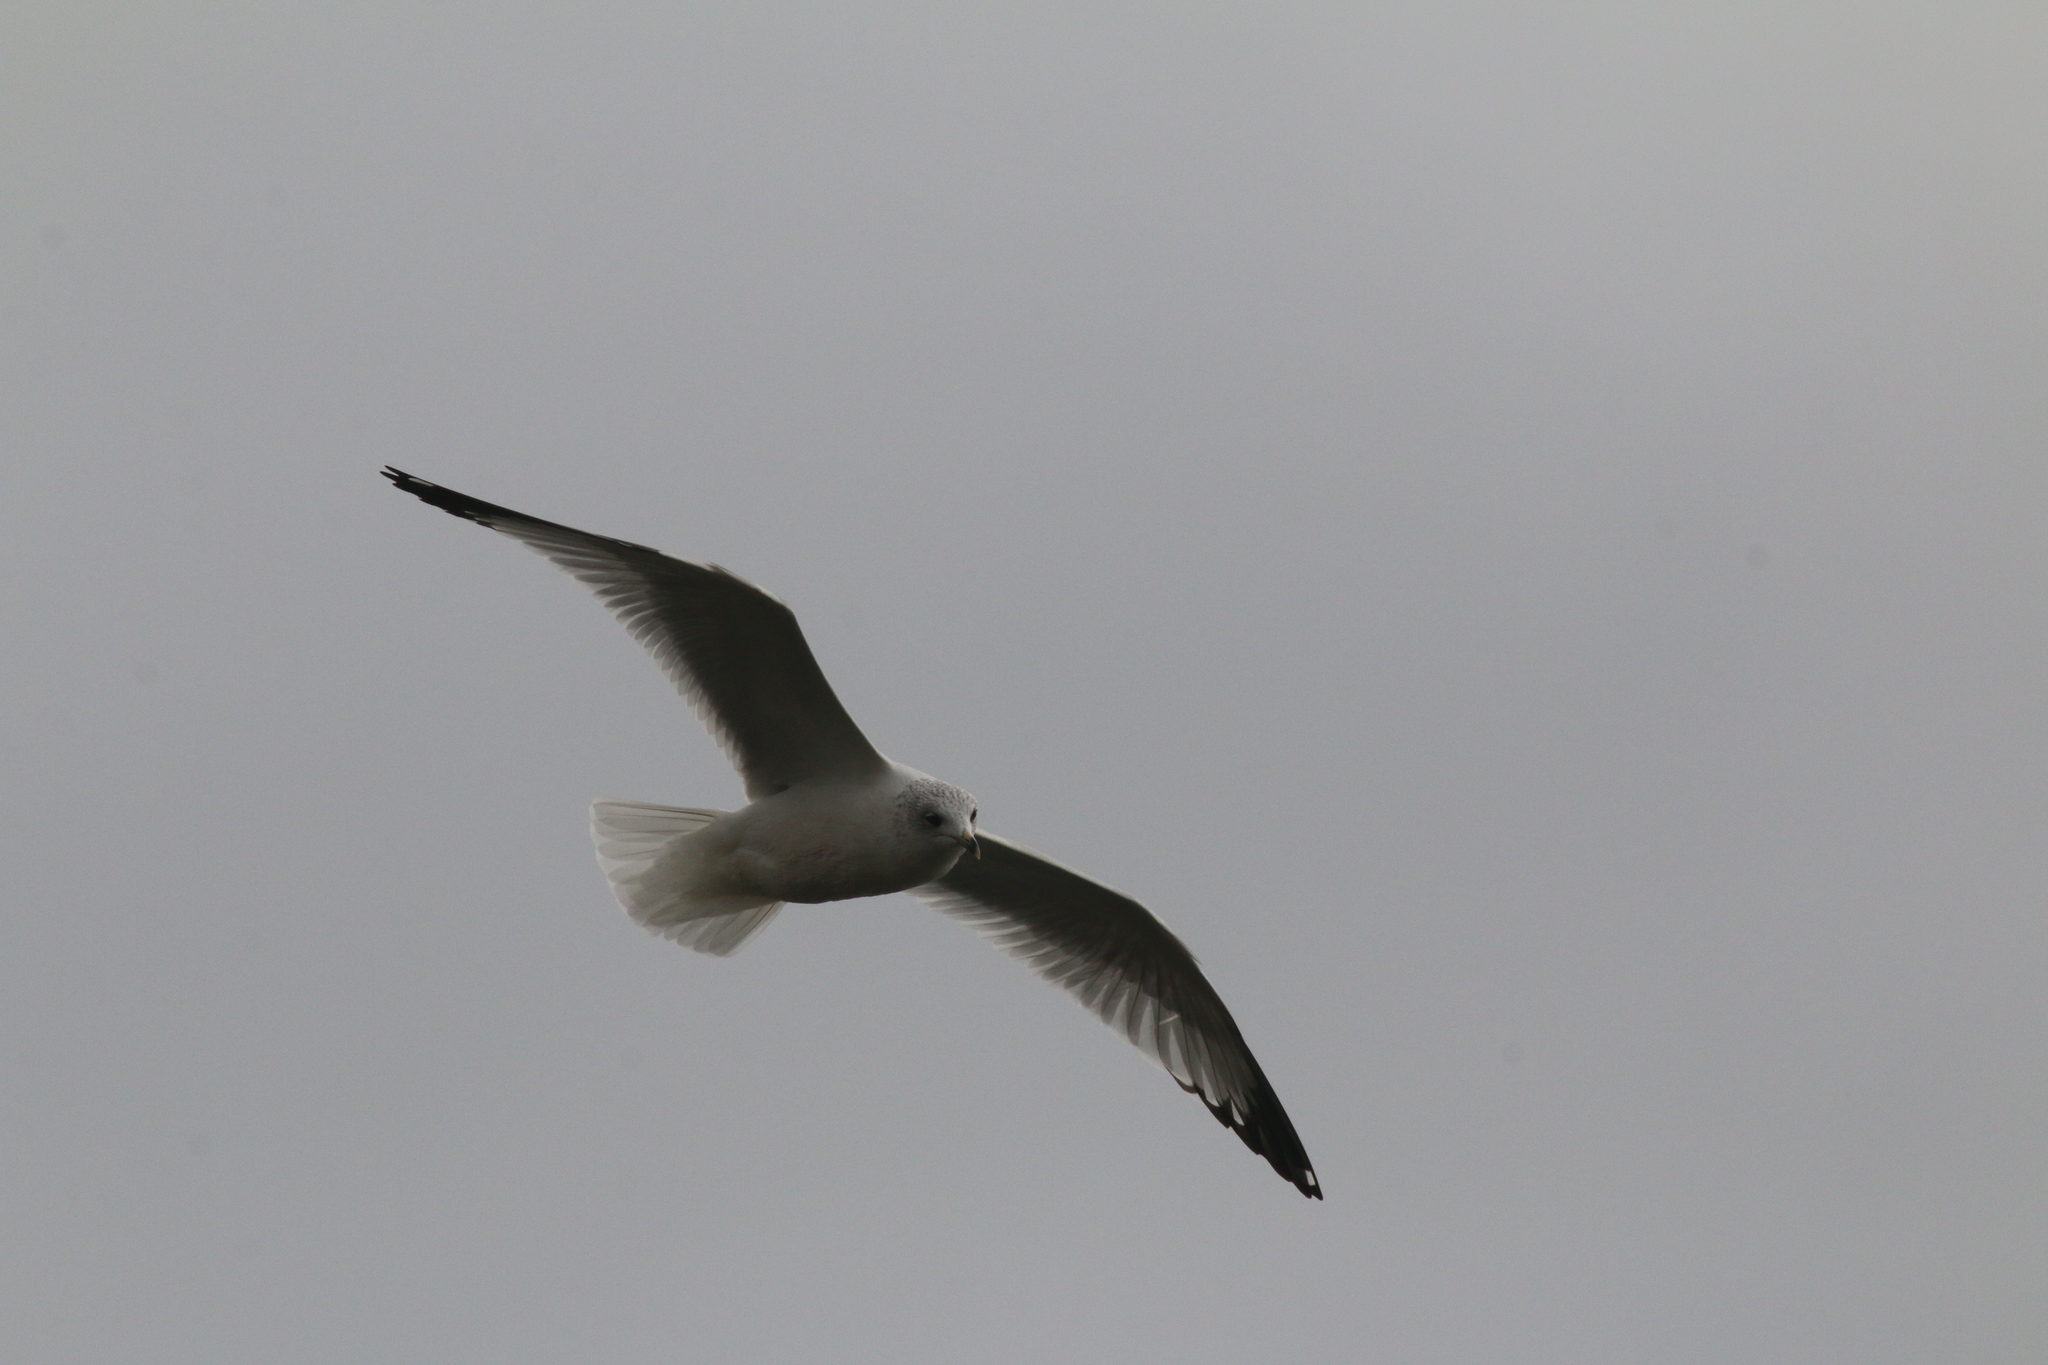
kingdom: Animalia
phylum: Chordata
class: Aves
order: Charadriiformes
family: Laridae
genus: Larus
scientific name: Larus delawarensis
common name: Ring-billed gull
